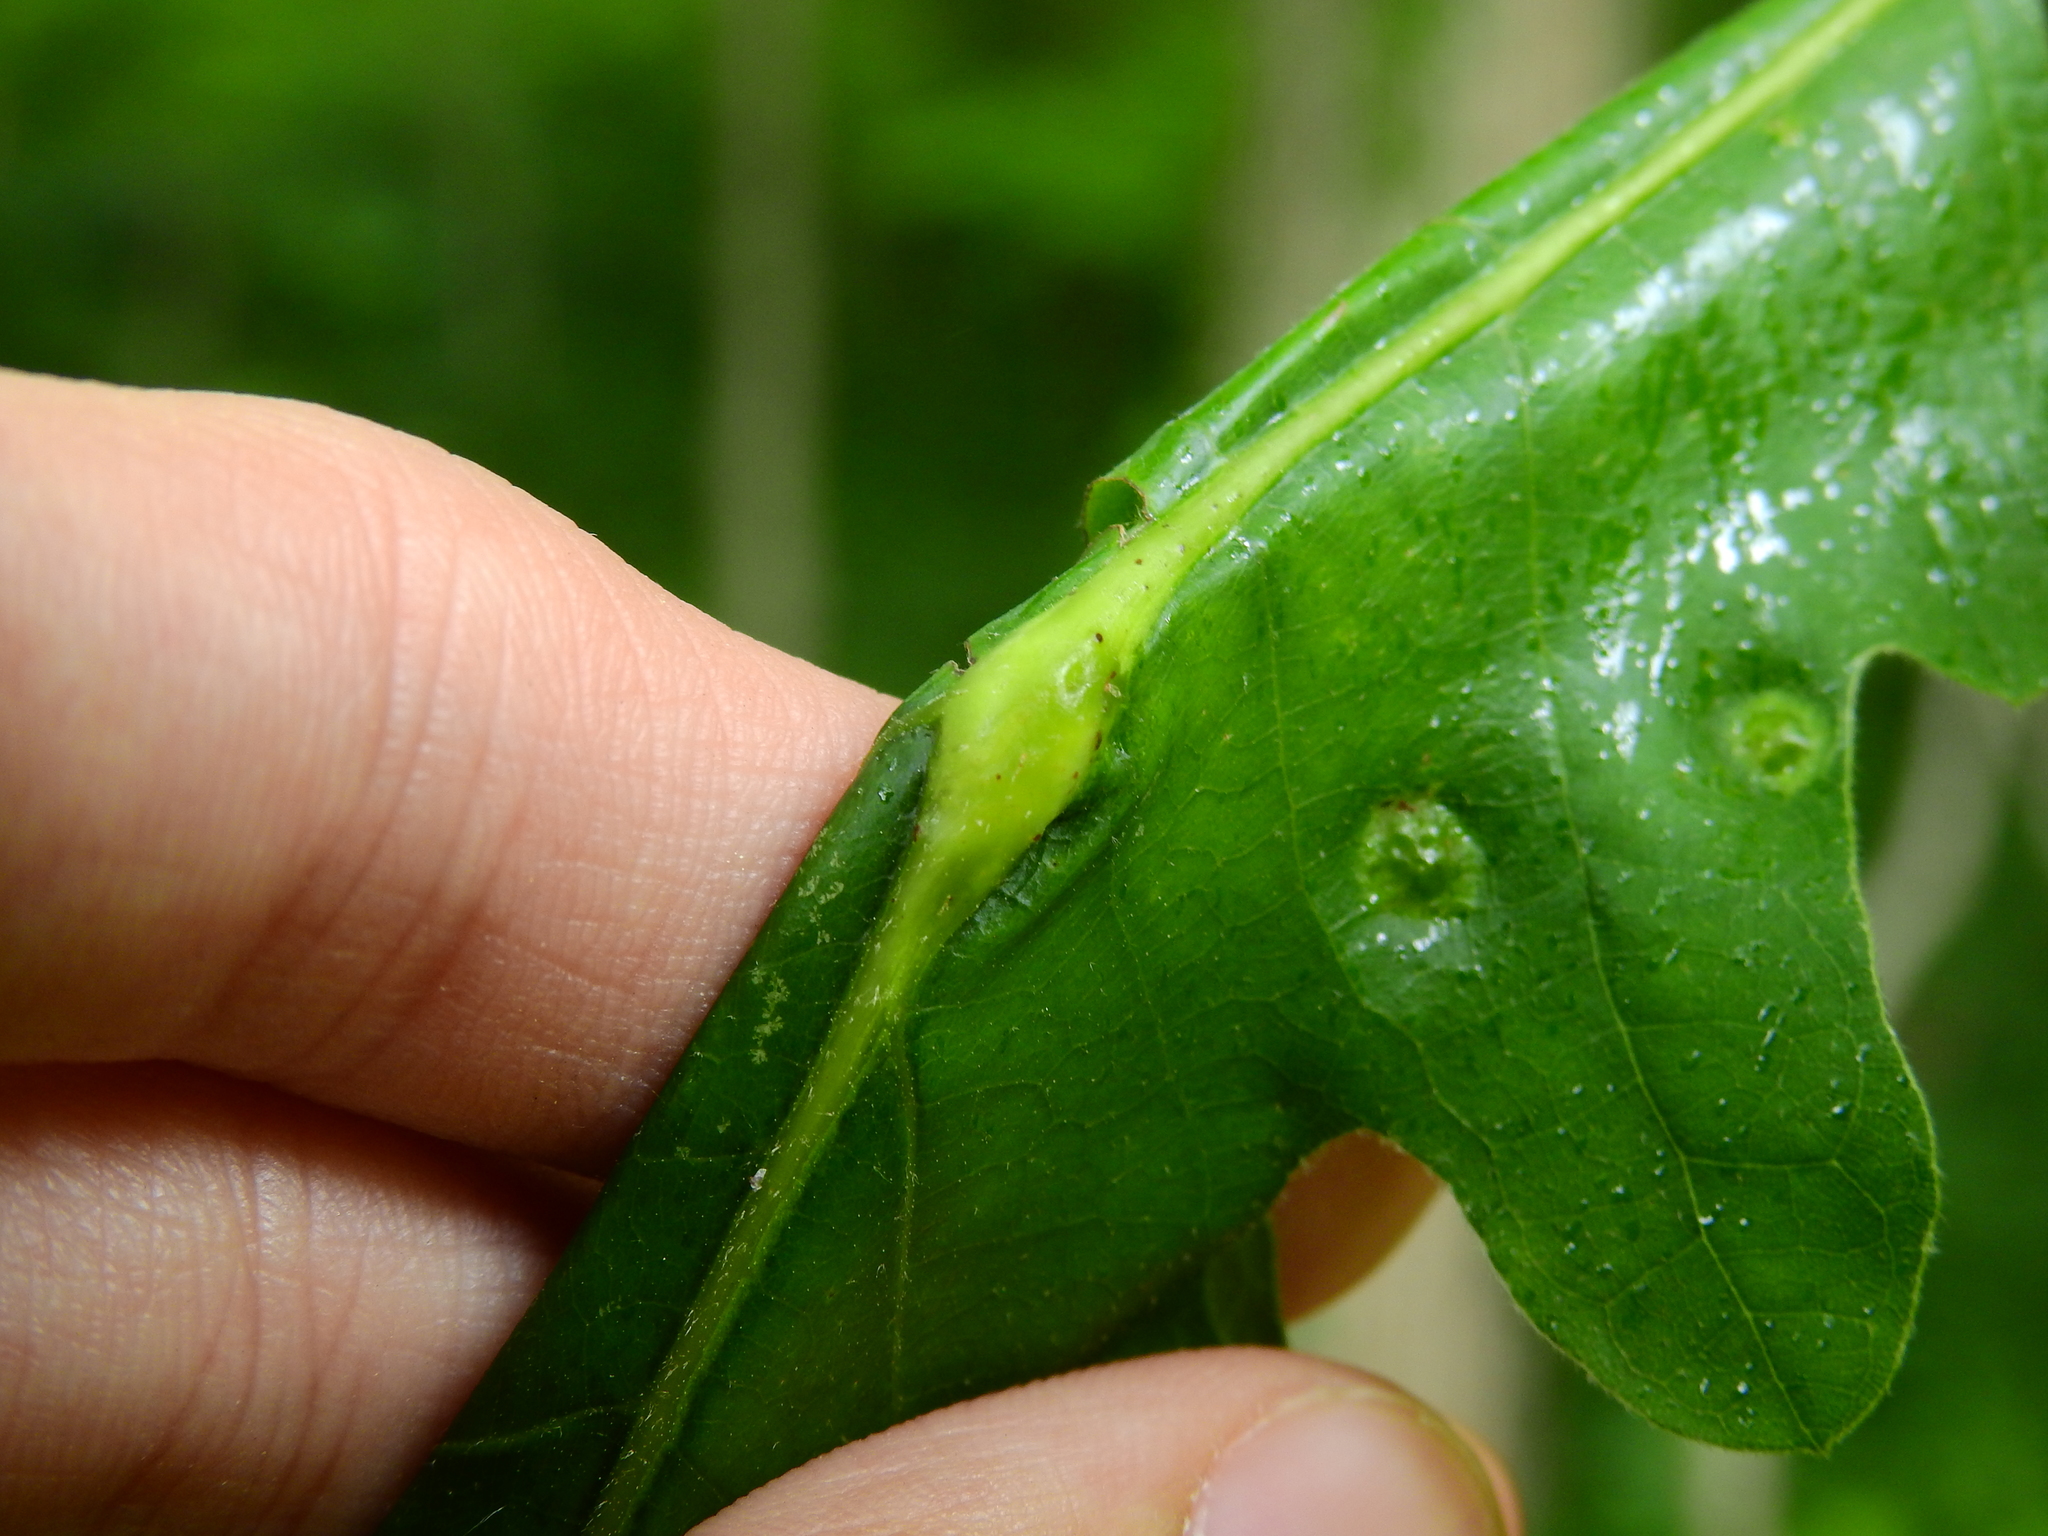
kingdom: Animalia
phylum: Arthropoda
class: Insecta
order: Hymenoptera
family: Cynipidae
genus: Bassettia
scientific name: Bassettia flavipes
